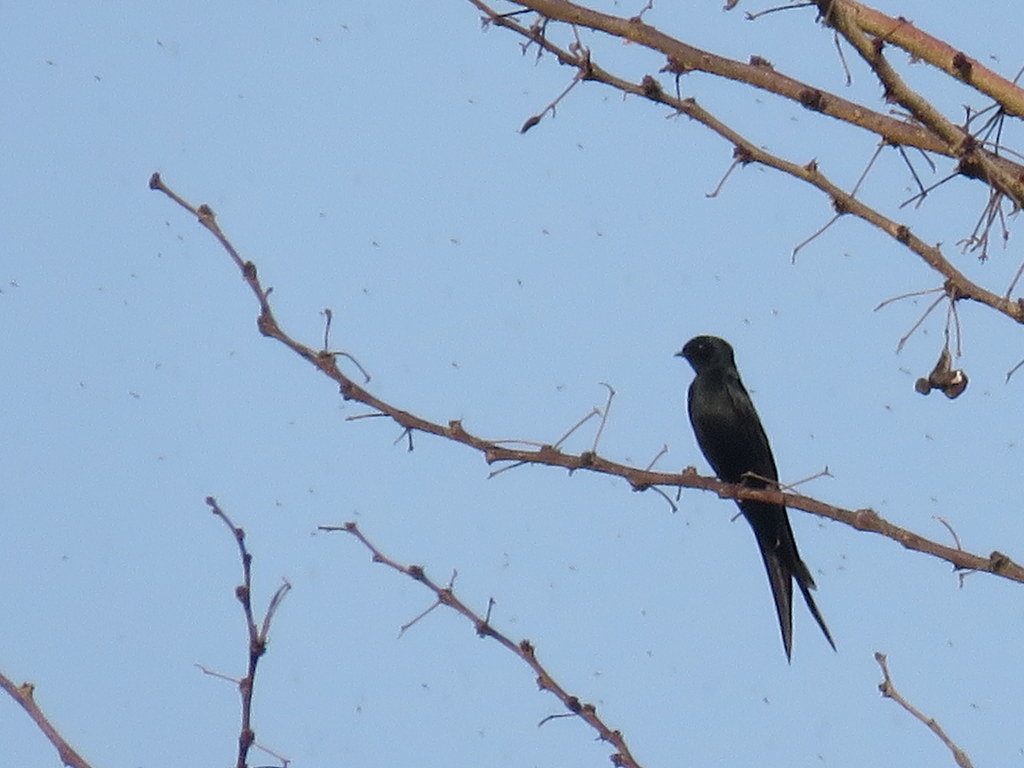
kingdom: Animalia
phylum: Chordata
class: Aves
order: Passeriformes
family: Hirundinidae
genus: Psalidoprocne
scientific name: Psalidoprocne pristoptera
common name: Black saw-wing
